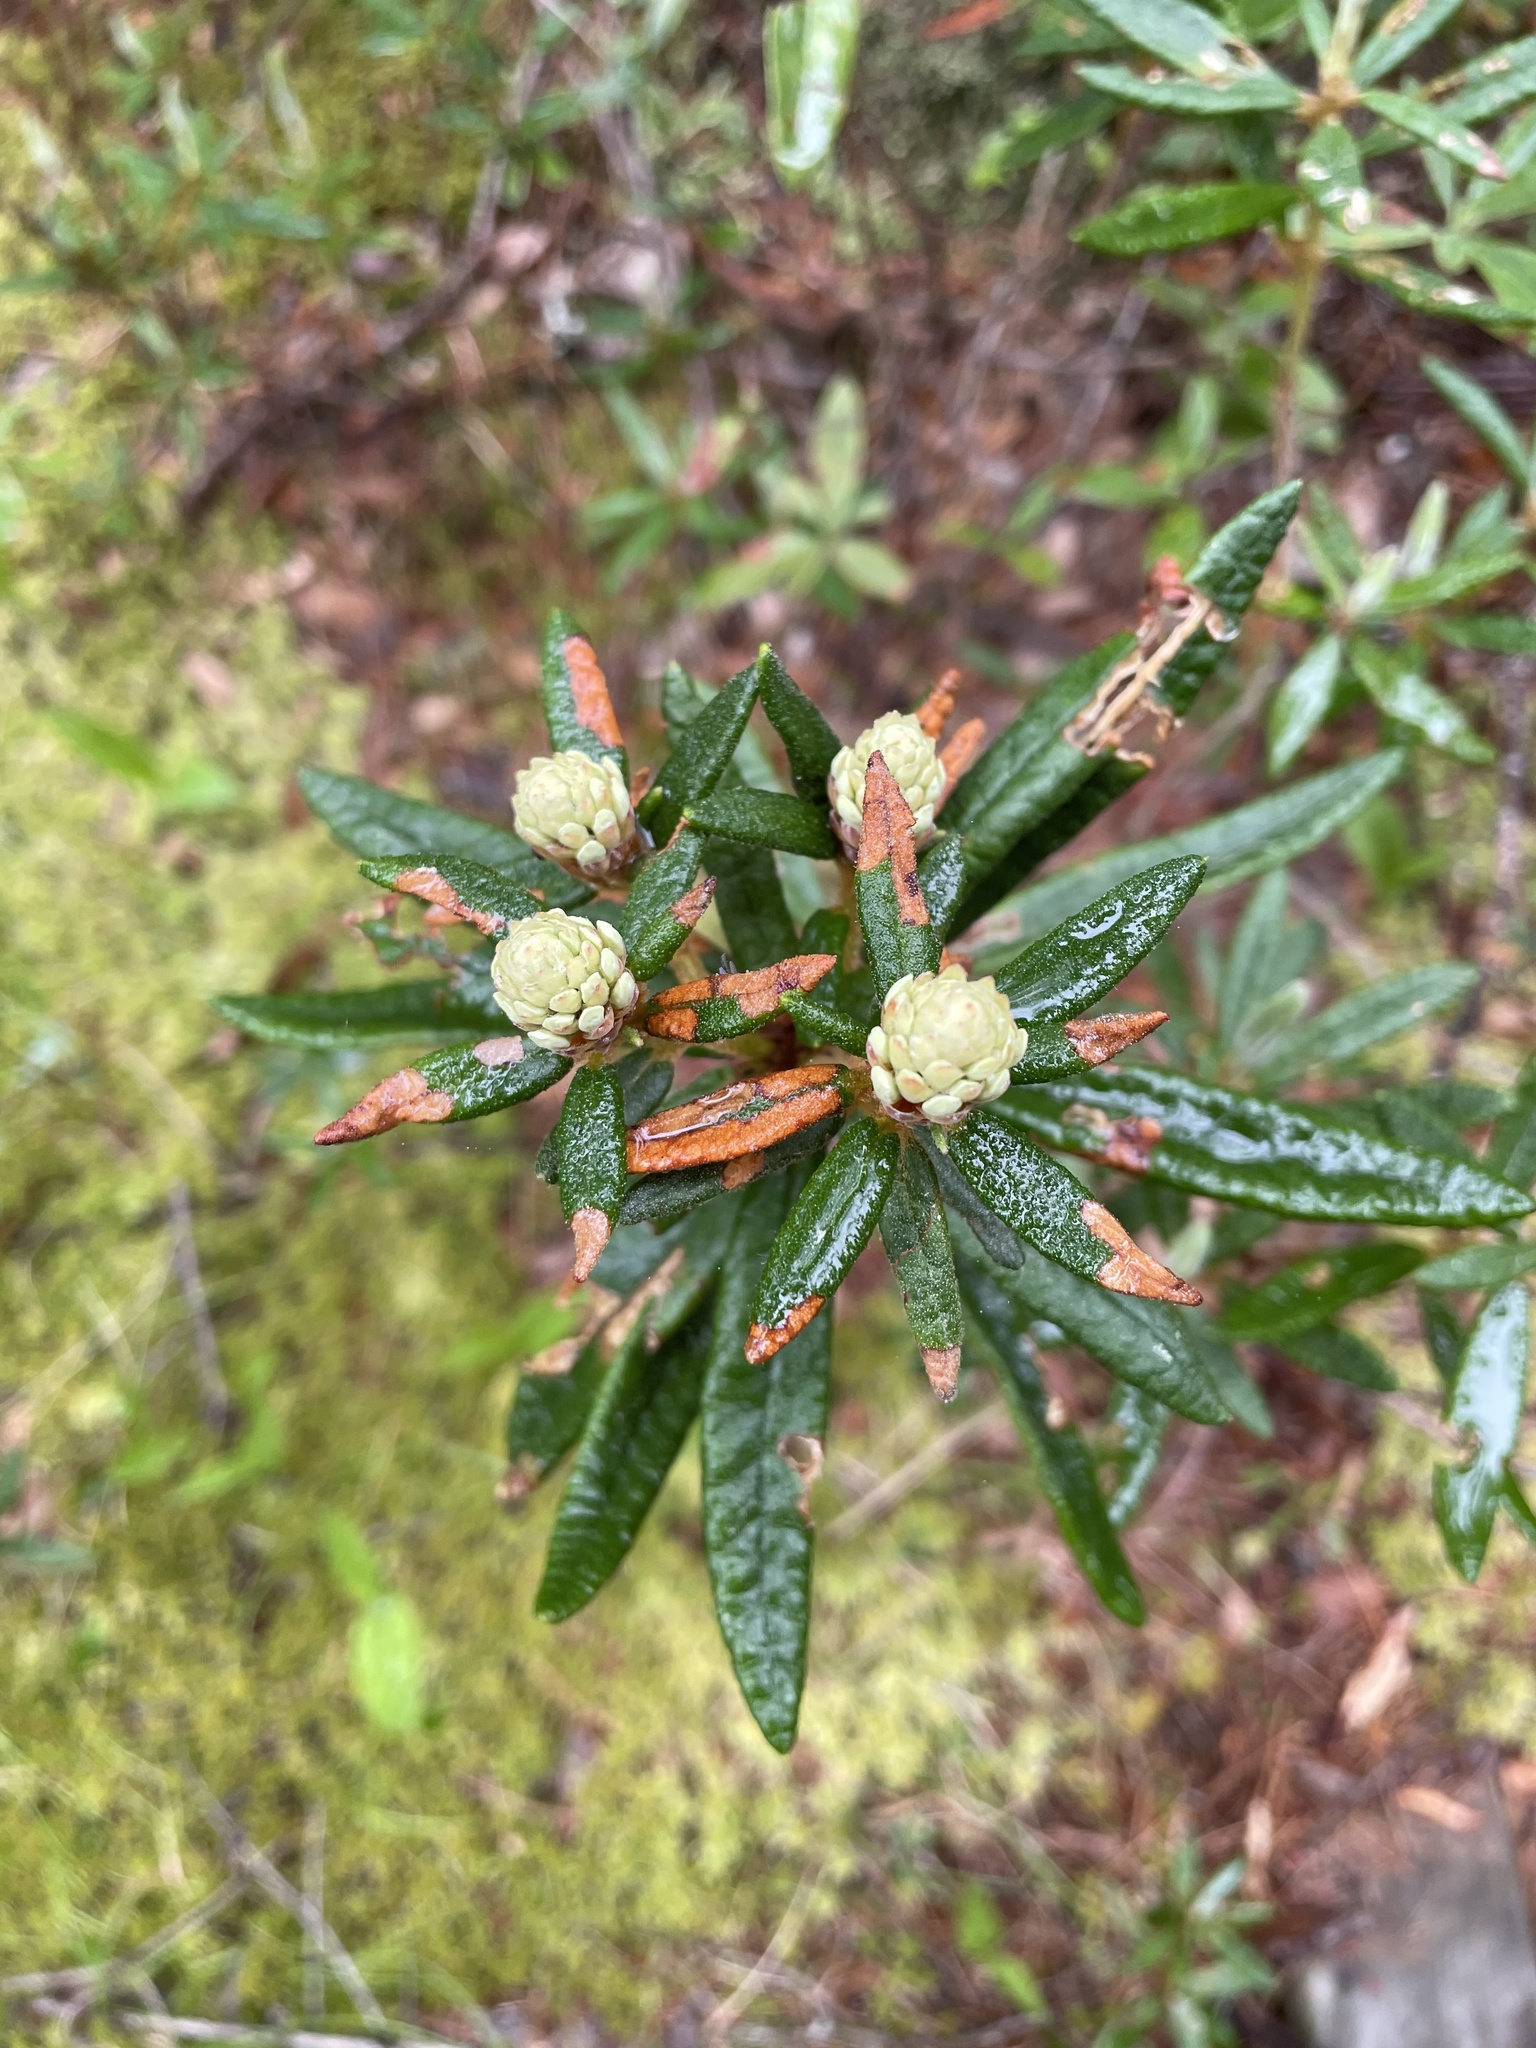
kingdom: Plantae
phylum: Tracheophyta
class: Magnoliopsida
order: Ericales
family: Ericaceae
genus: Rhododendron
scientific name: Rhododendron groenlandicum
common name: Bog labrador tea
